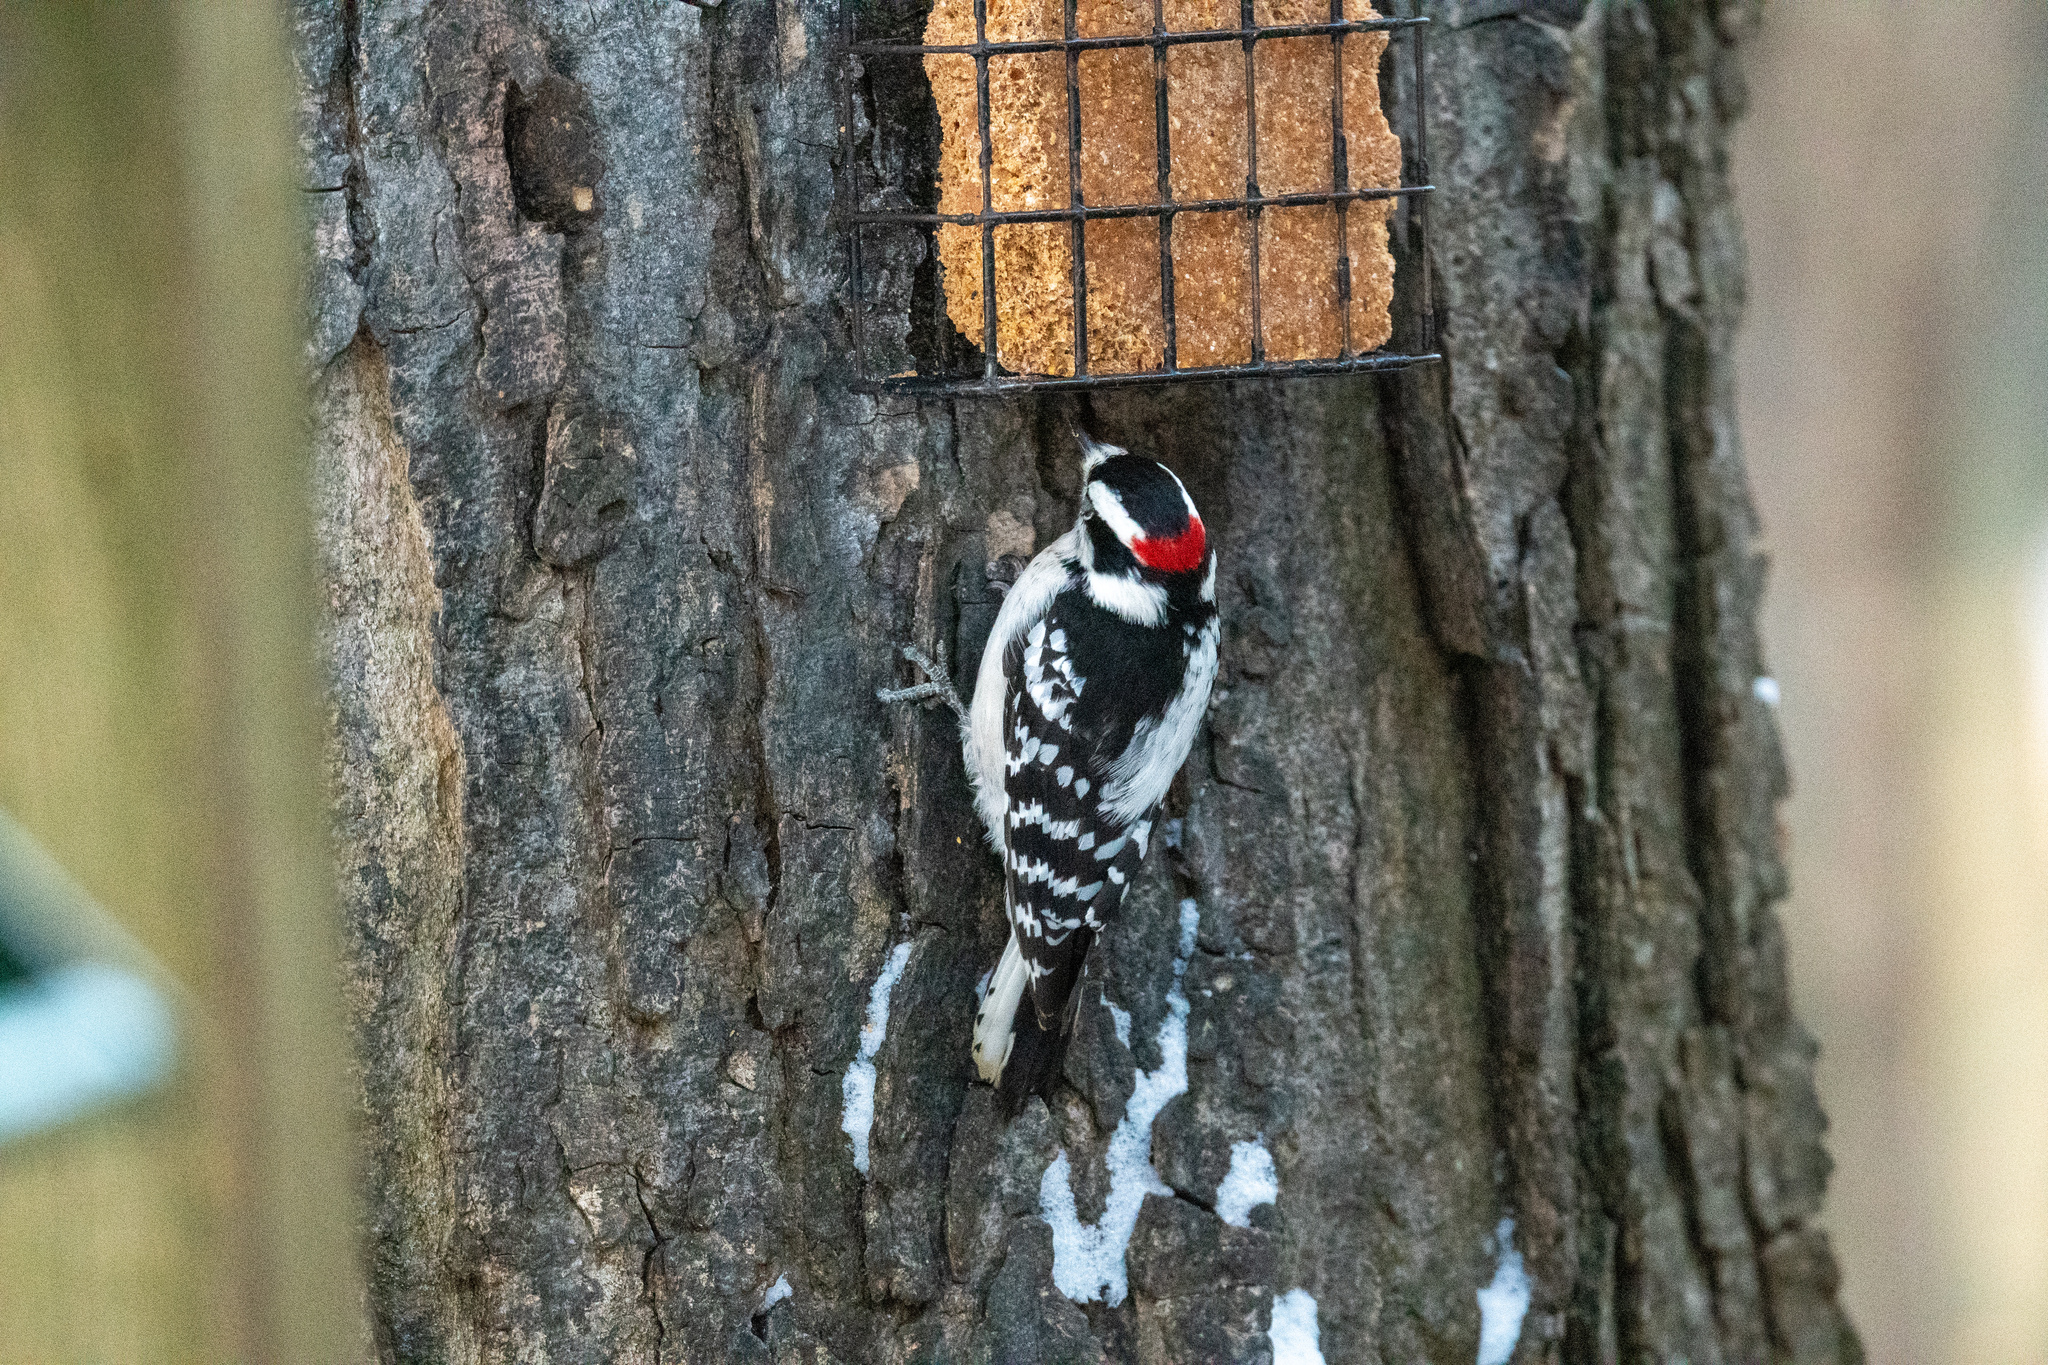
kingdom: Animalia
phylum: Chordata
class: Aves
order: Piciformes
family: Picidae
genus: Dryobates
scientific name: Dryobates pubescens
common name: Downy woodpecker
